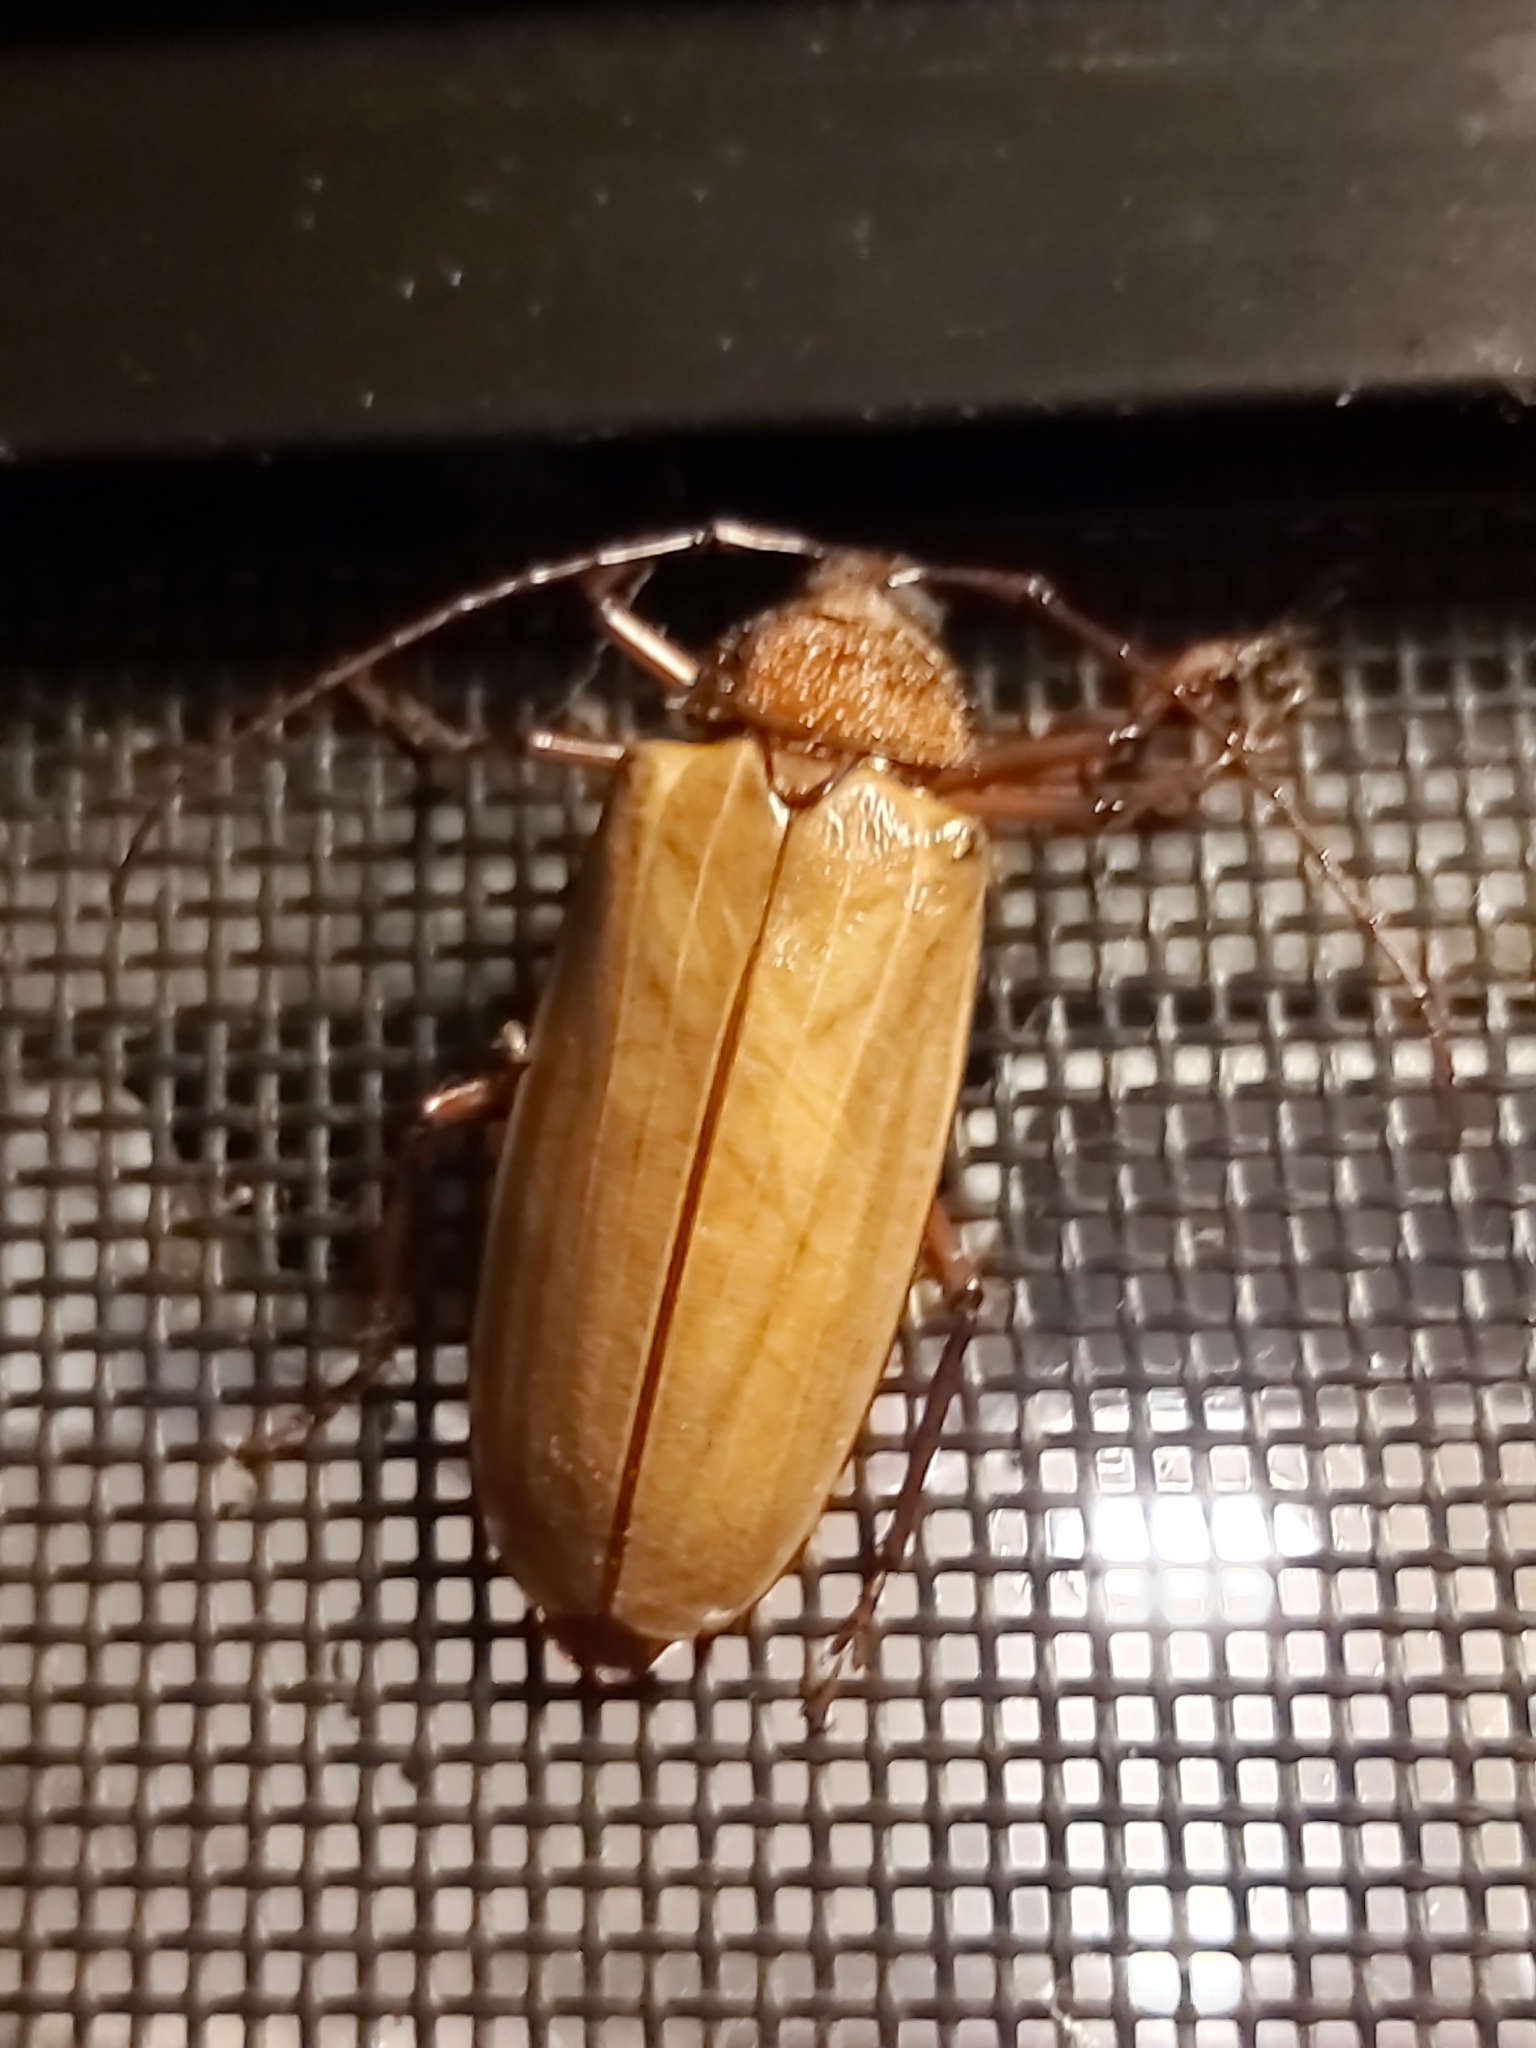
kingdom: Animalia
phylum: Arthropoda
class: Insecta
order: Coleoptera
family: Cerambycidae
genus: Agrianome
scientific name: Agrianome spinicollis
